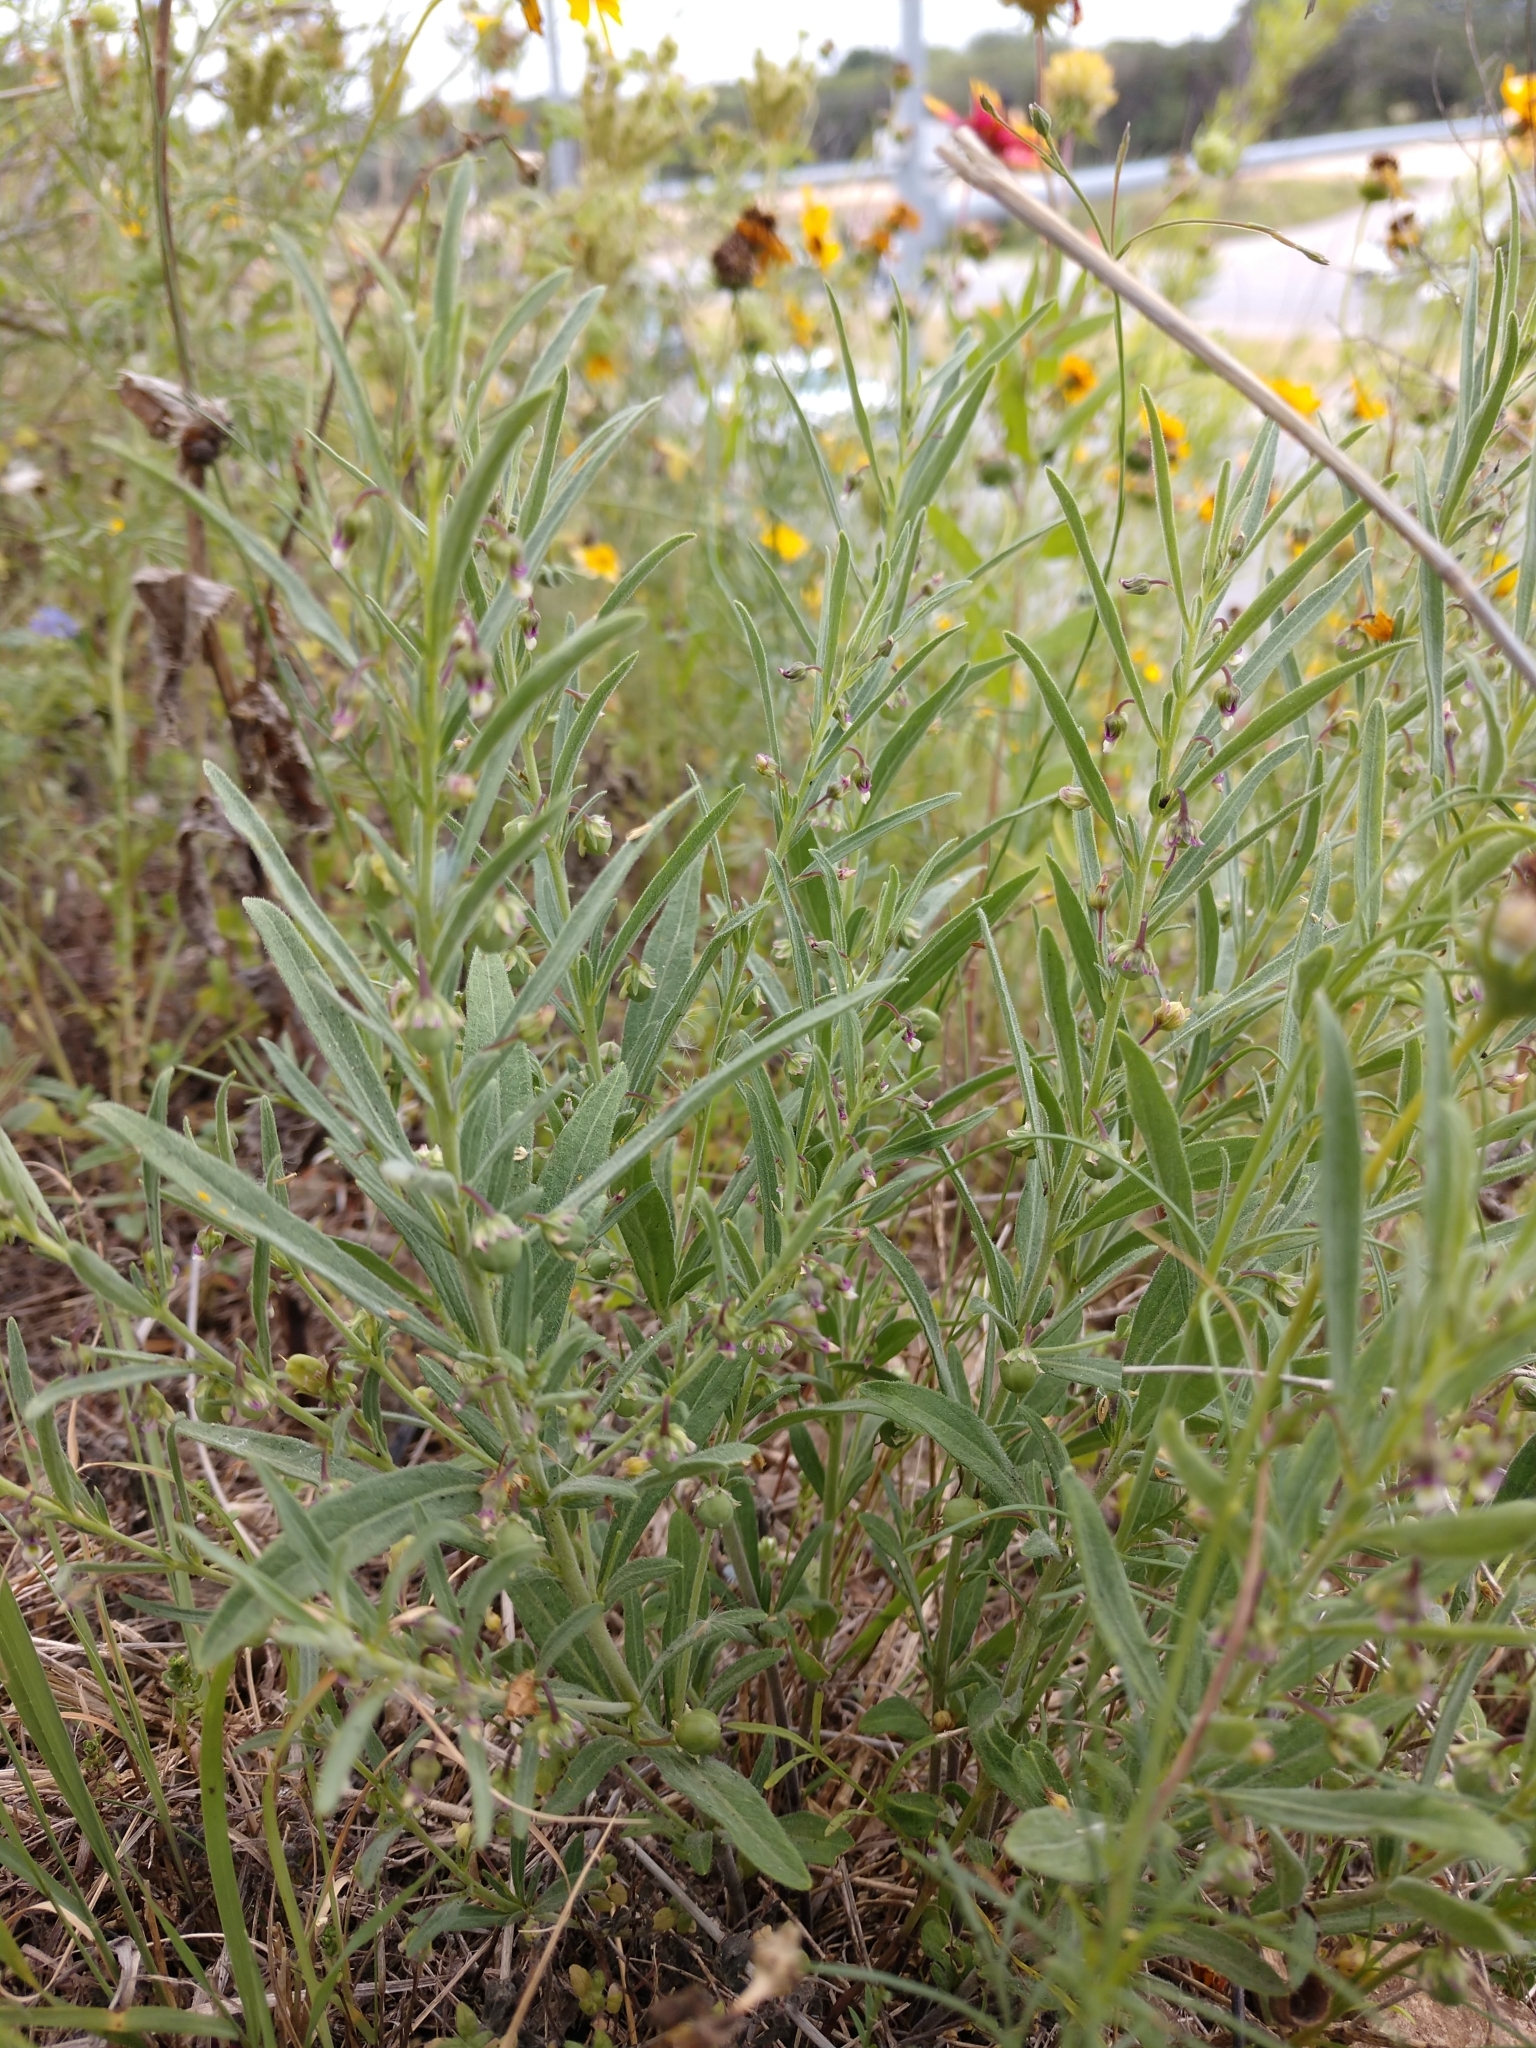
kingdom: Plantae
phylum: Tracheophyta
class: Magnoliopsida
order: Malpighiales
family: Violaceae
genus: Pombalia
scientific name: Pombalia verticillata
